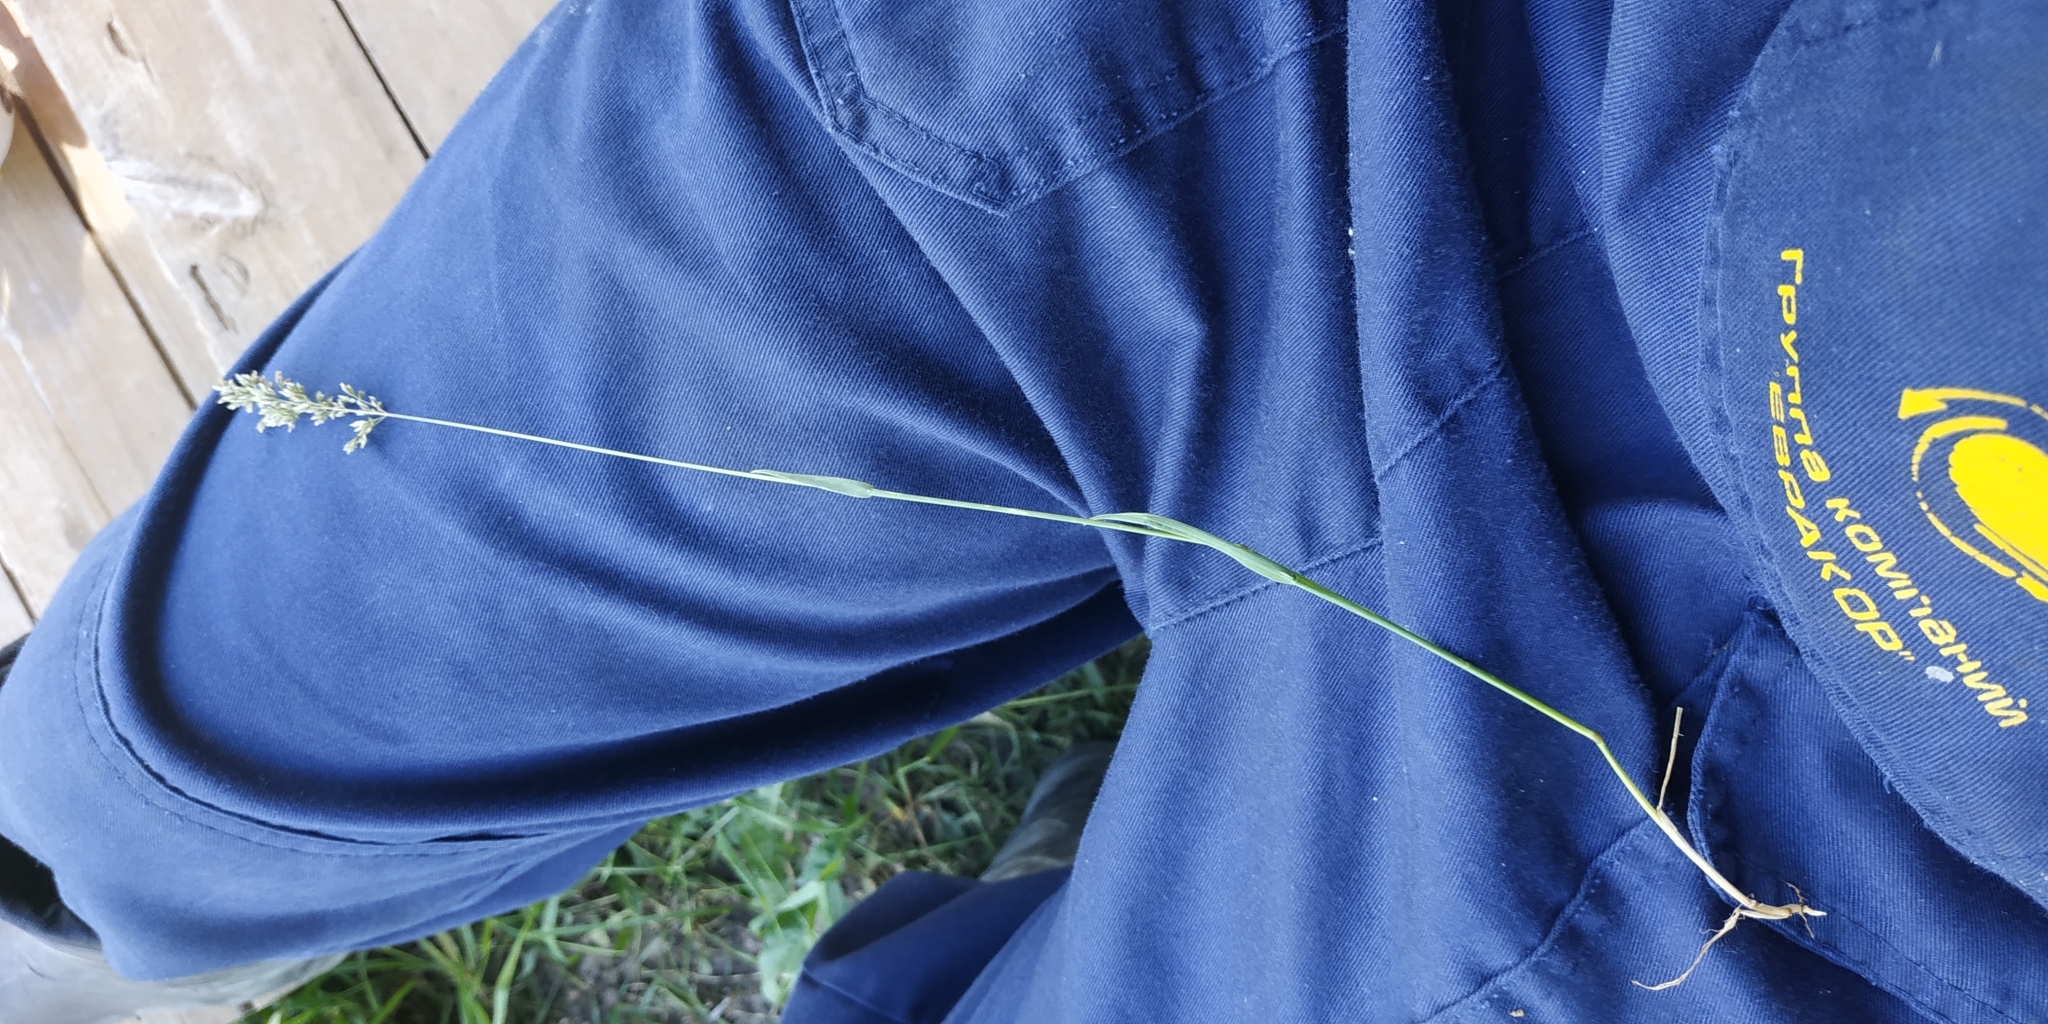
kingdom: Plantae
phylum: Tracheophyta
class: Liliopsida
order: Poales
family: Poaceae
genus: Poa
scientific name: Poa pratensis
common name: Kentucky bluegrass
